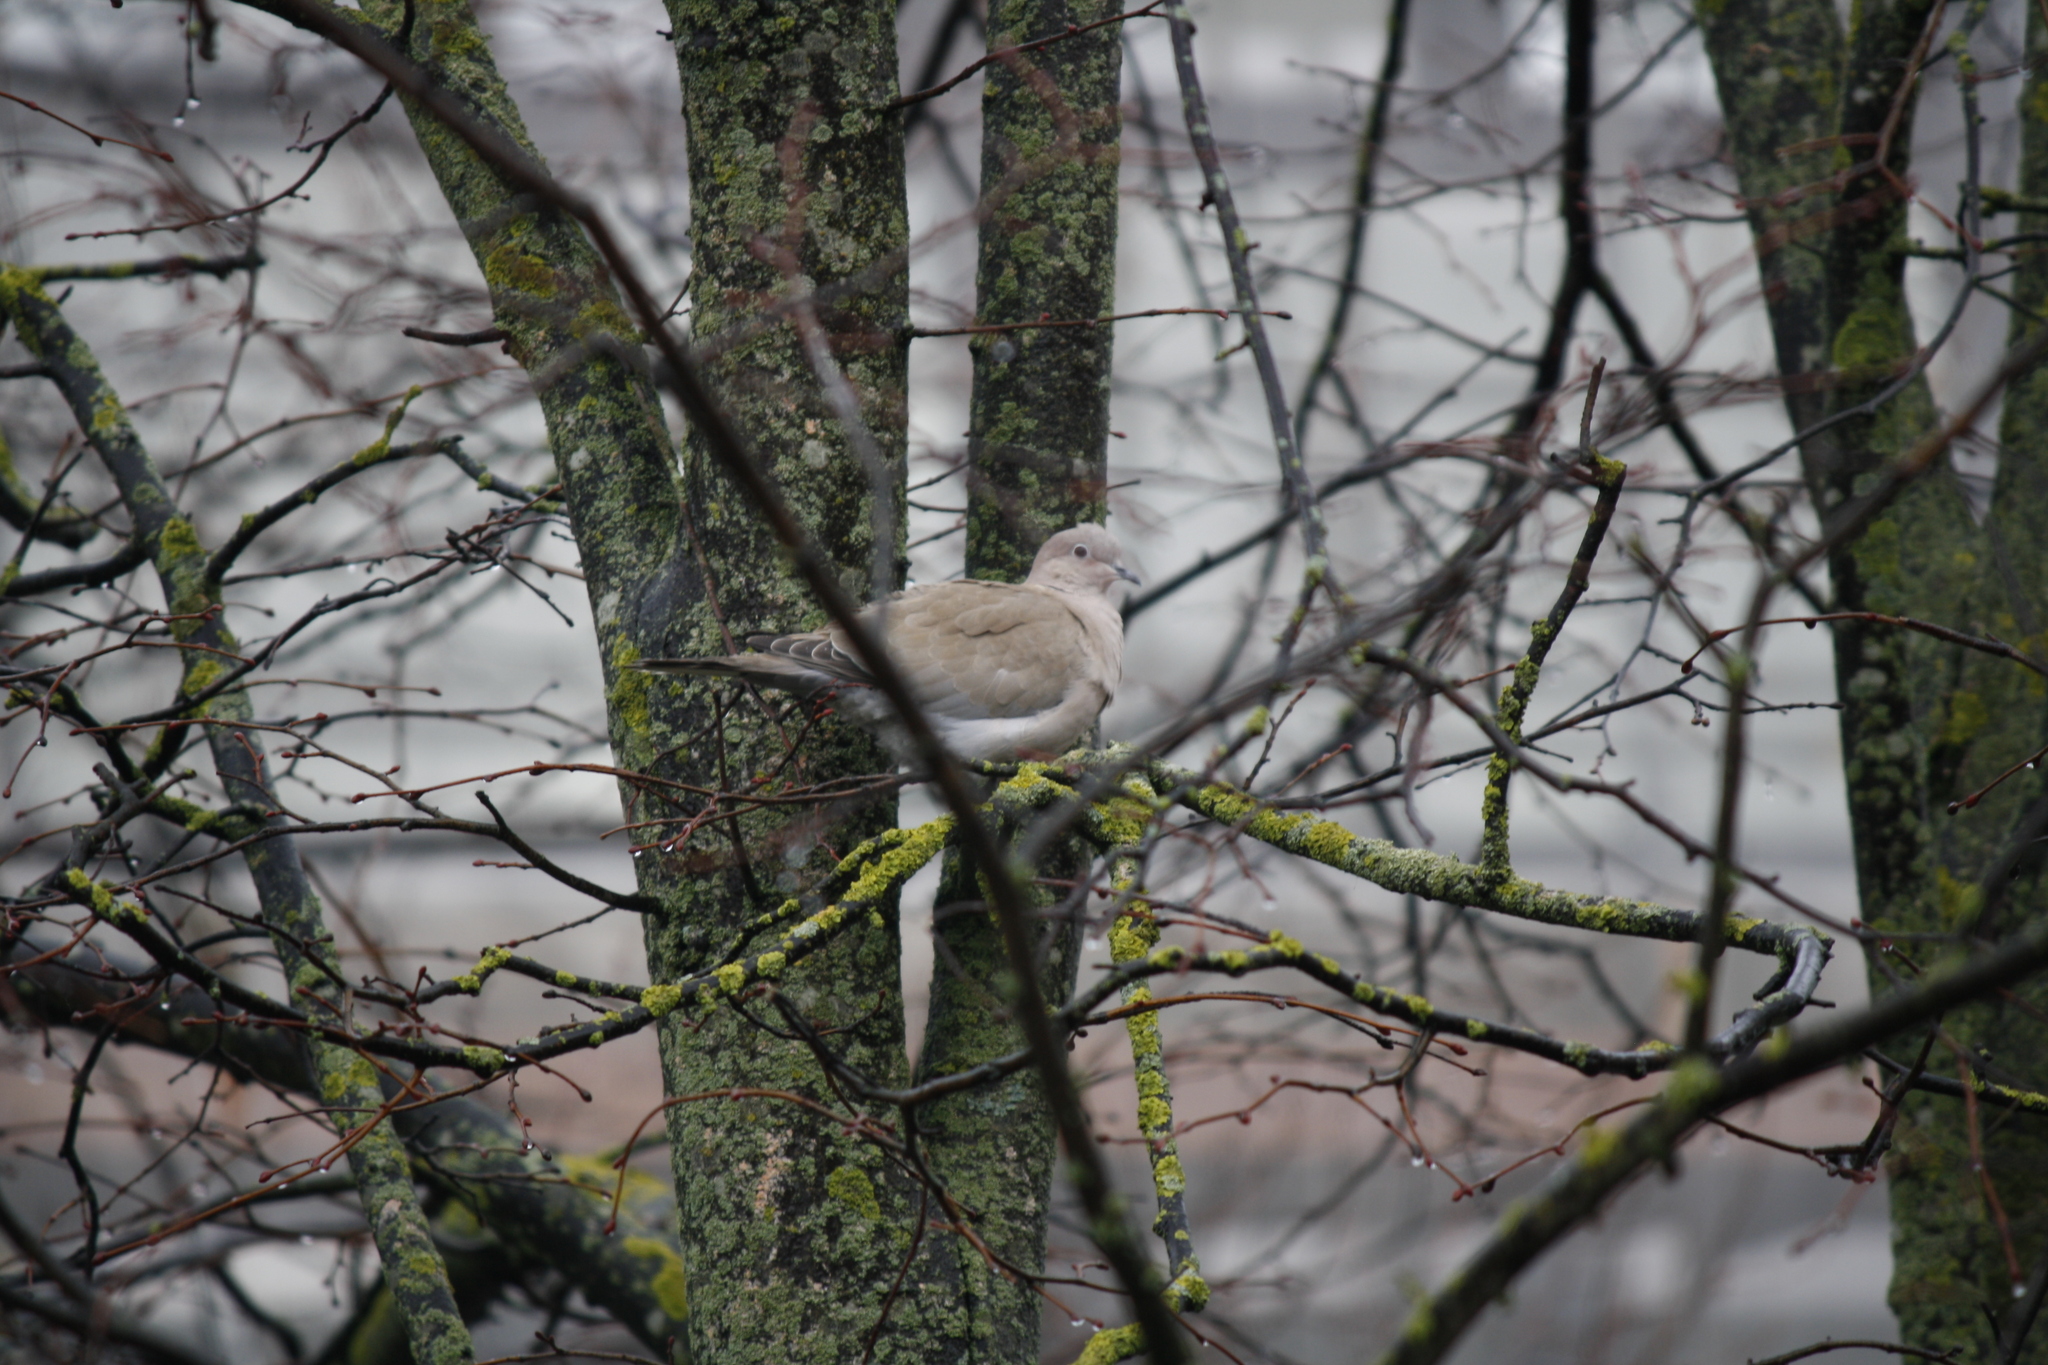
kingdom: Animalia
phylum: Chordata
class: Aves
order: Columbiformes
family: Columbidae
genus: Streptopelia
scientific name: Streptopelia decaocto
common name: Eurasian collared dove
